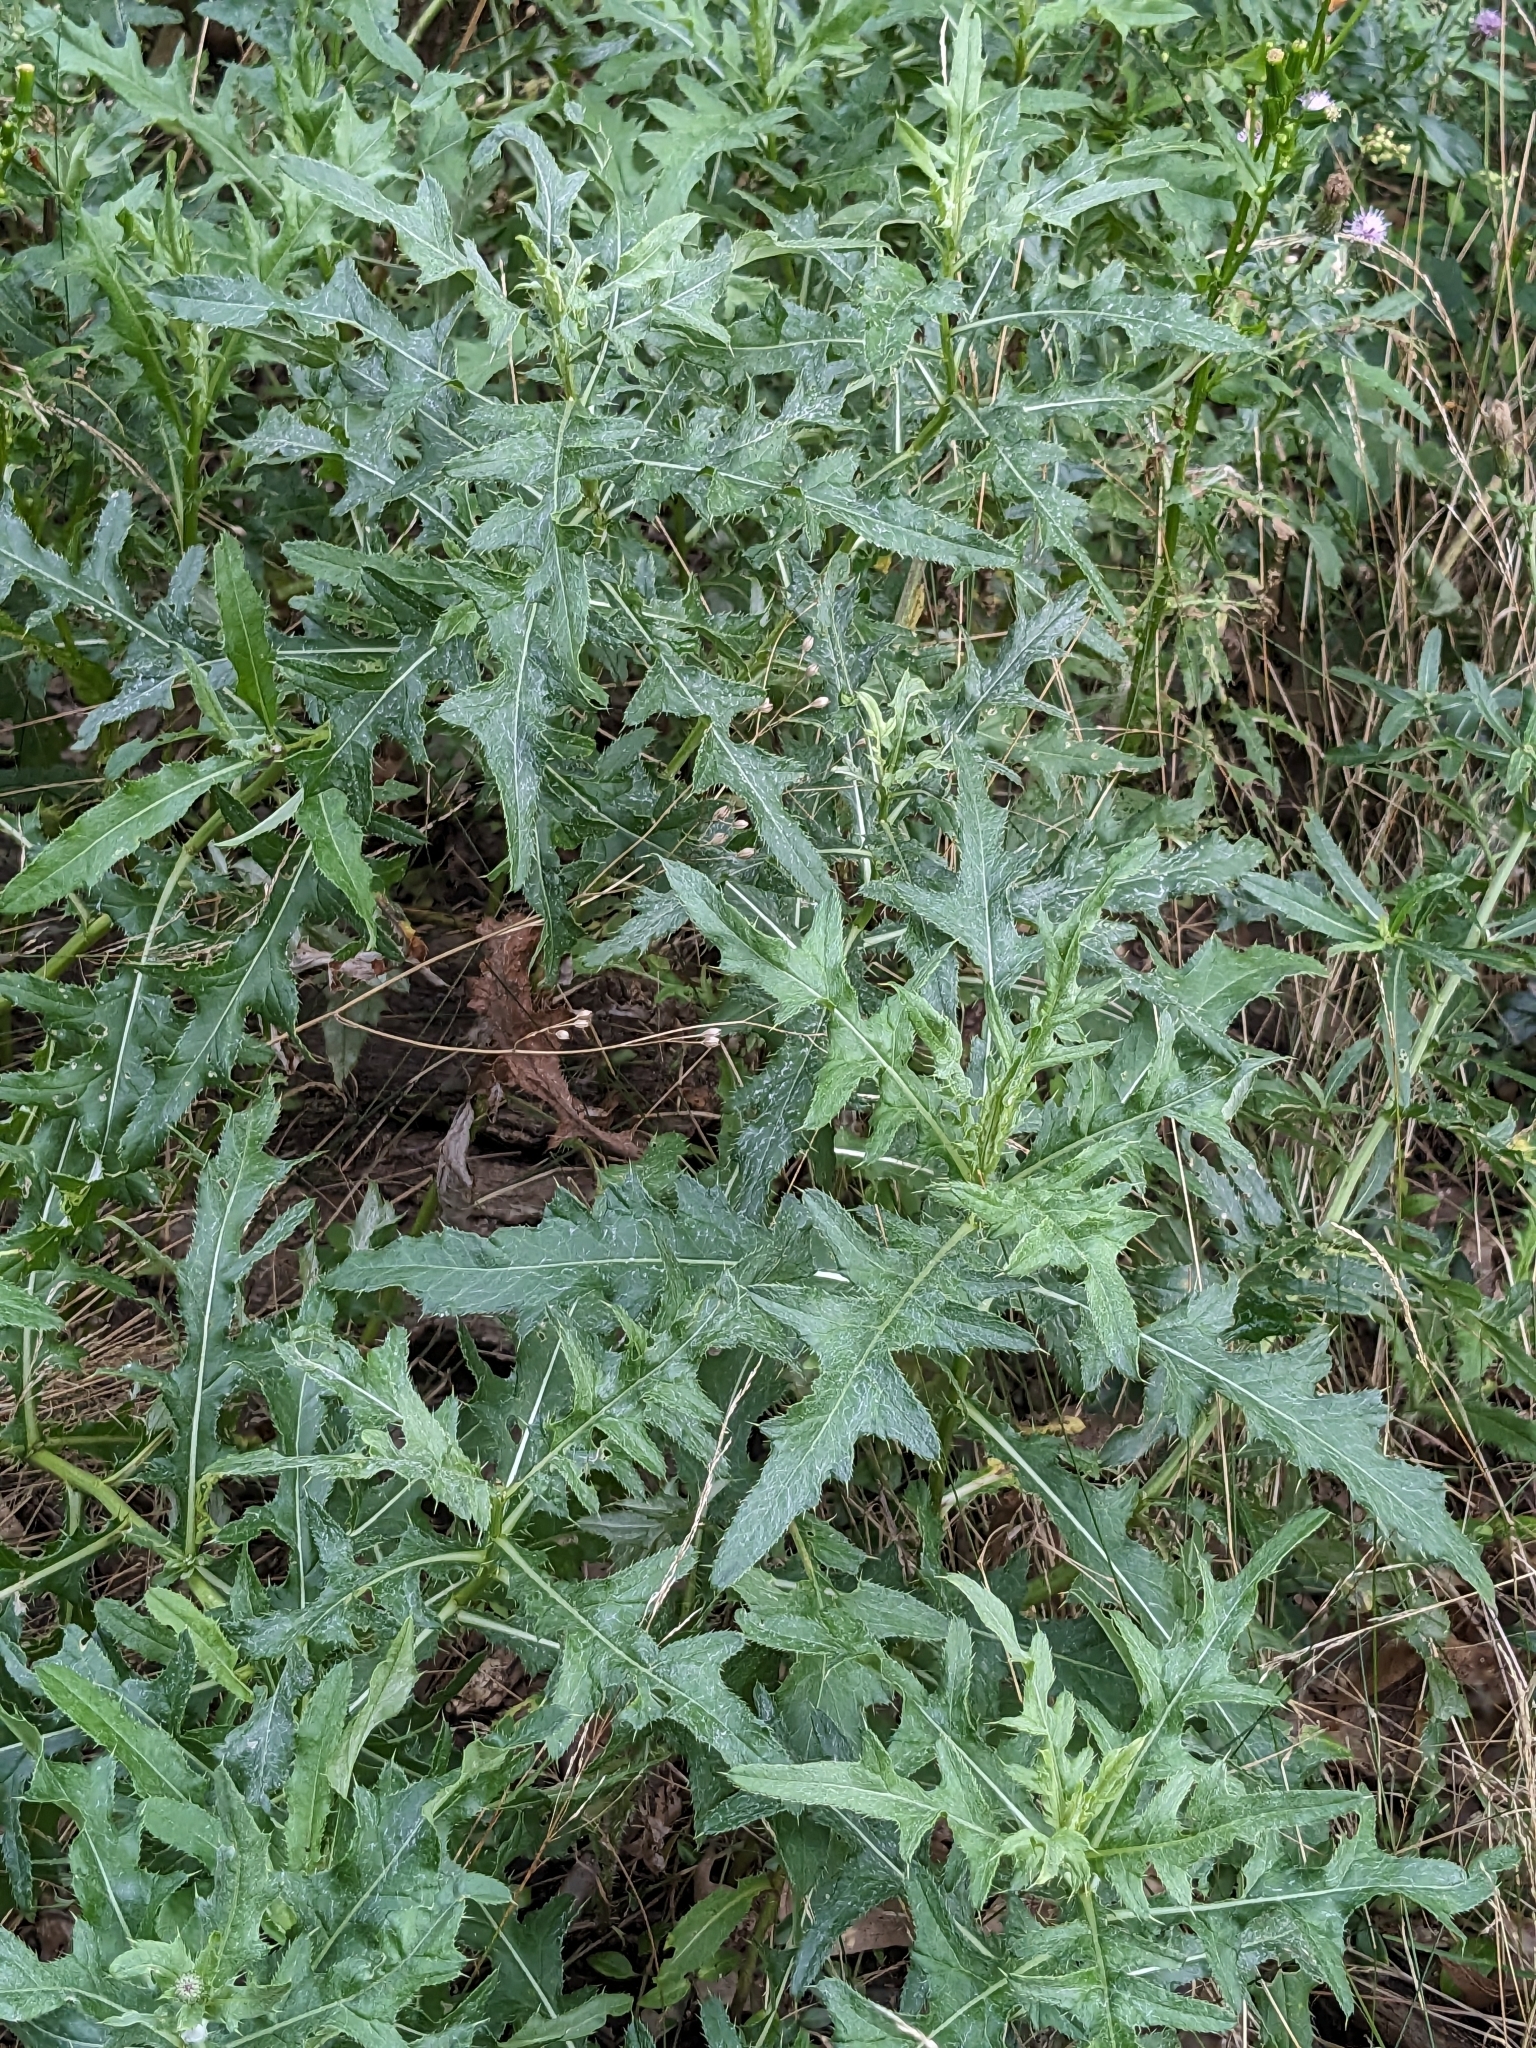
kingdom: Plantae
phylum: Tracheophyta
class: Magnoliopsida
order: Asterales
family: Asteraceae
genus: Cirsium
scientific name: Cirsium arvense
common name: Creeping thistle
